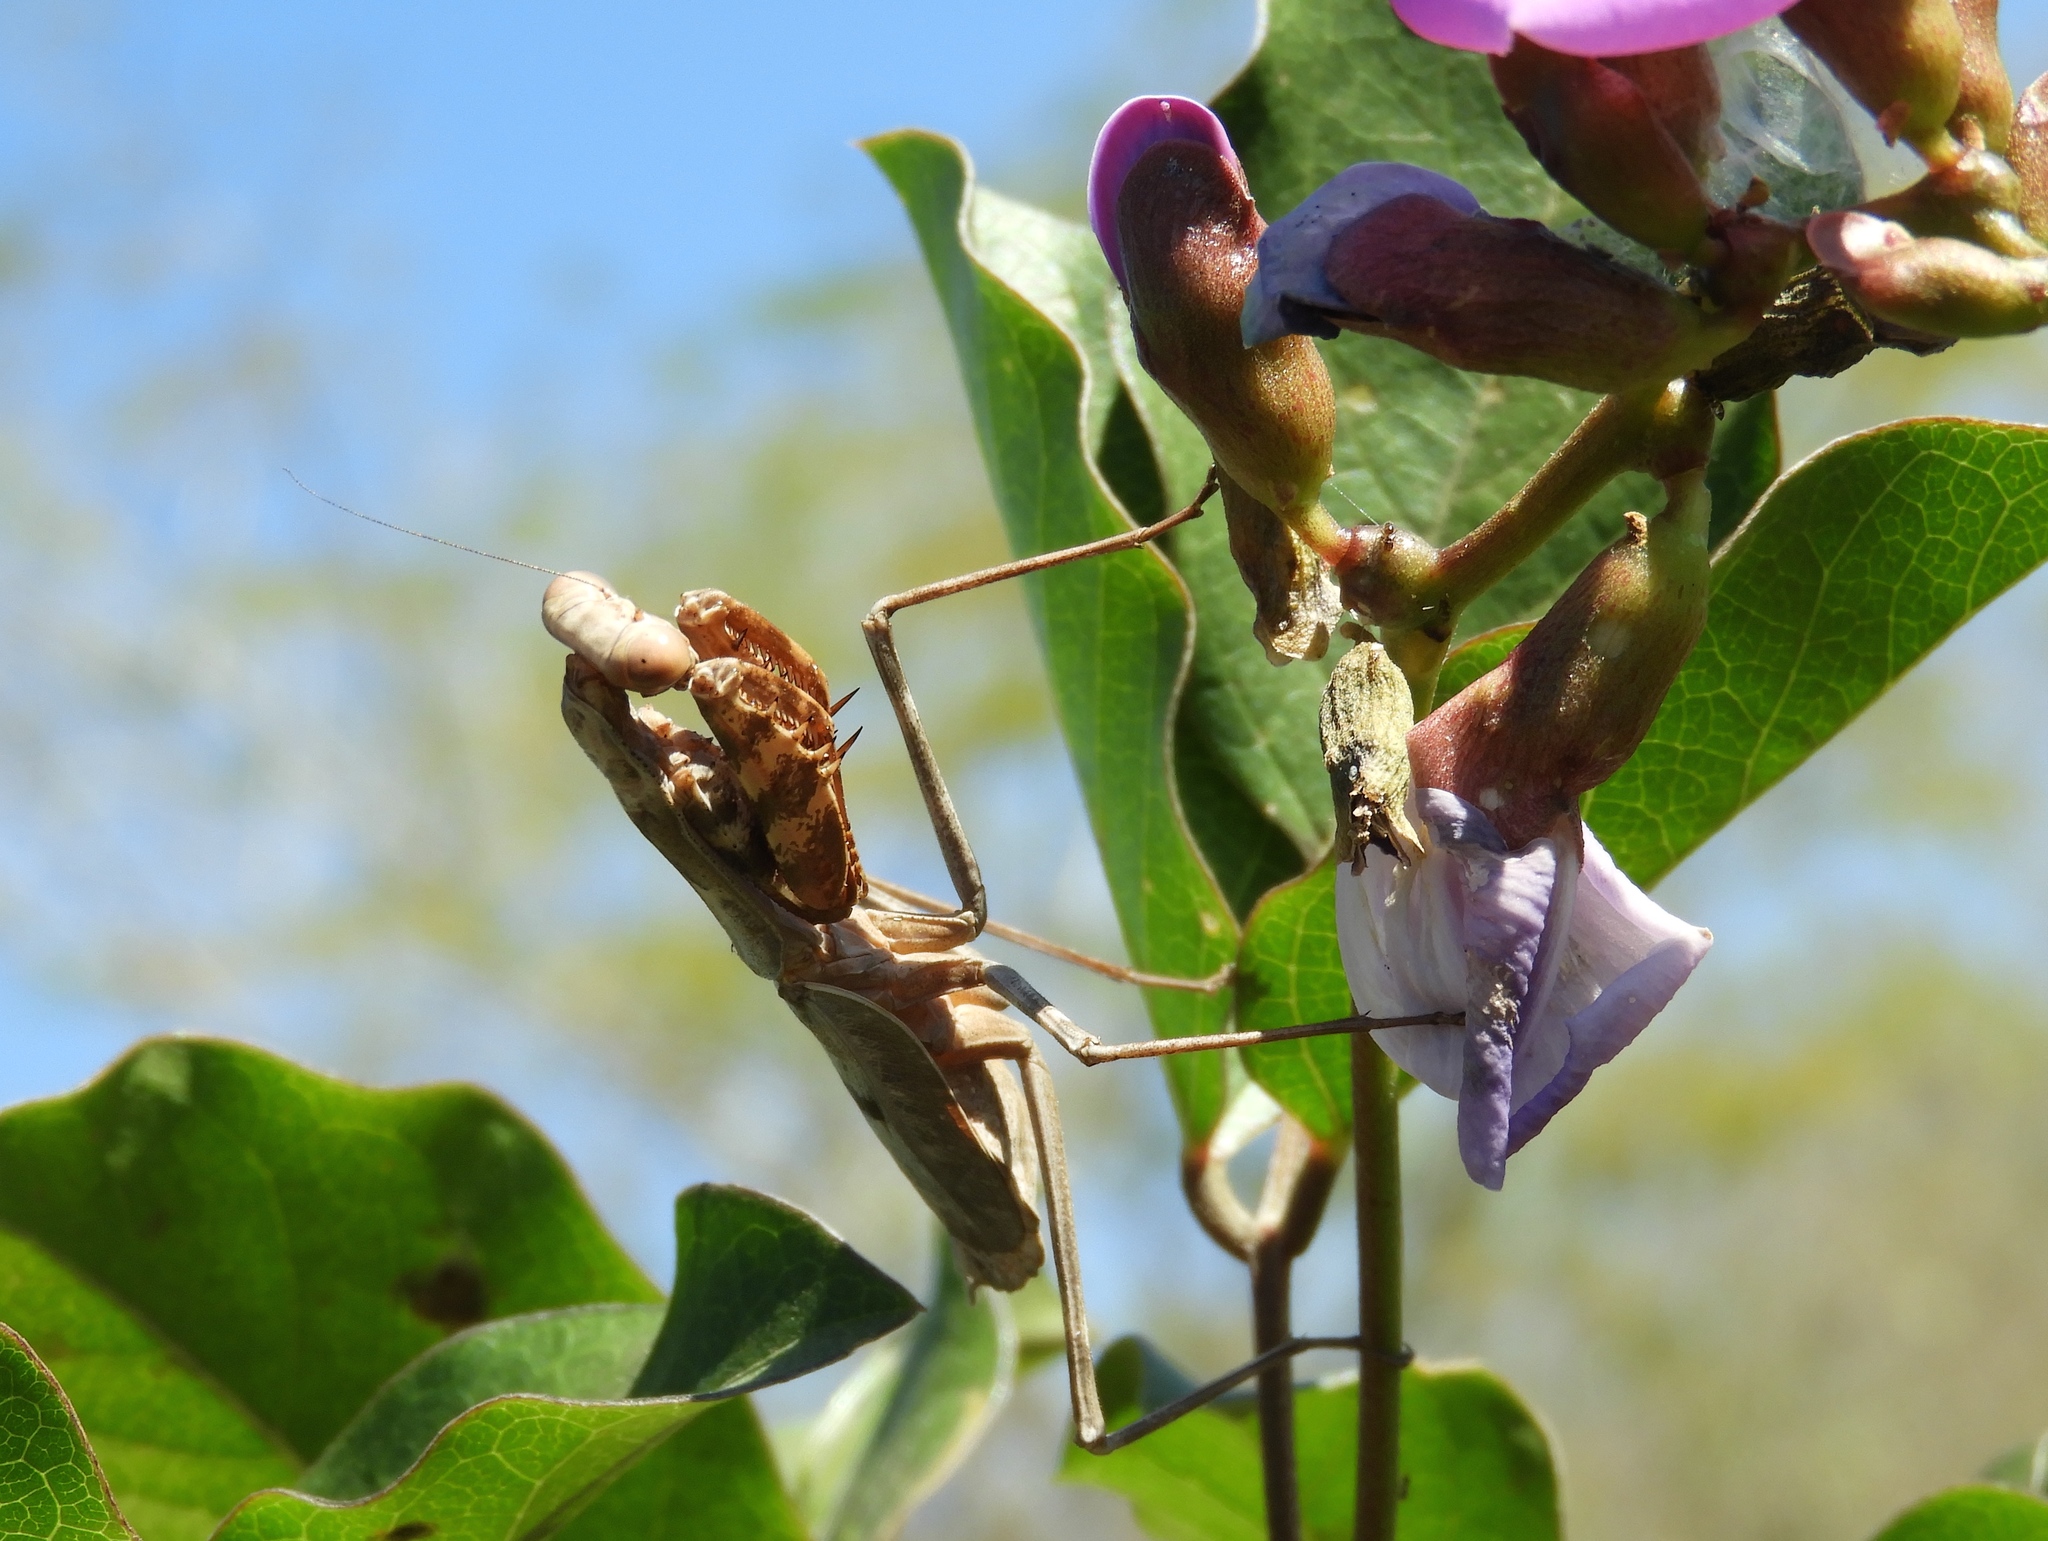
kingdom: Animalia
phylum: Arthropoda
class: Insecta
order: Mantodea
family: Mantidae
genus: Stagmomantis
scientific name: Stagmomantis carolina
